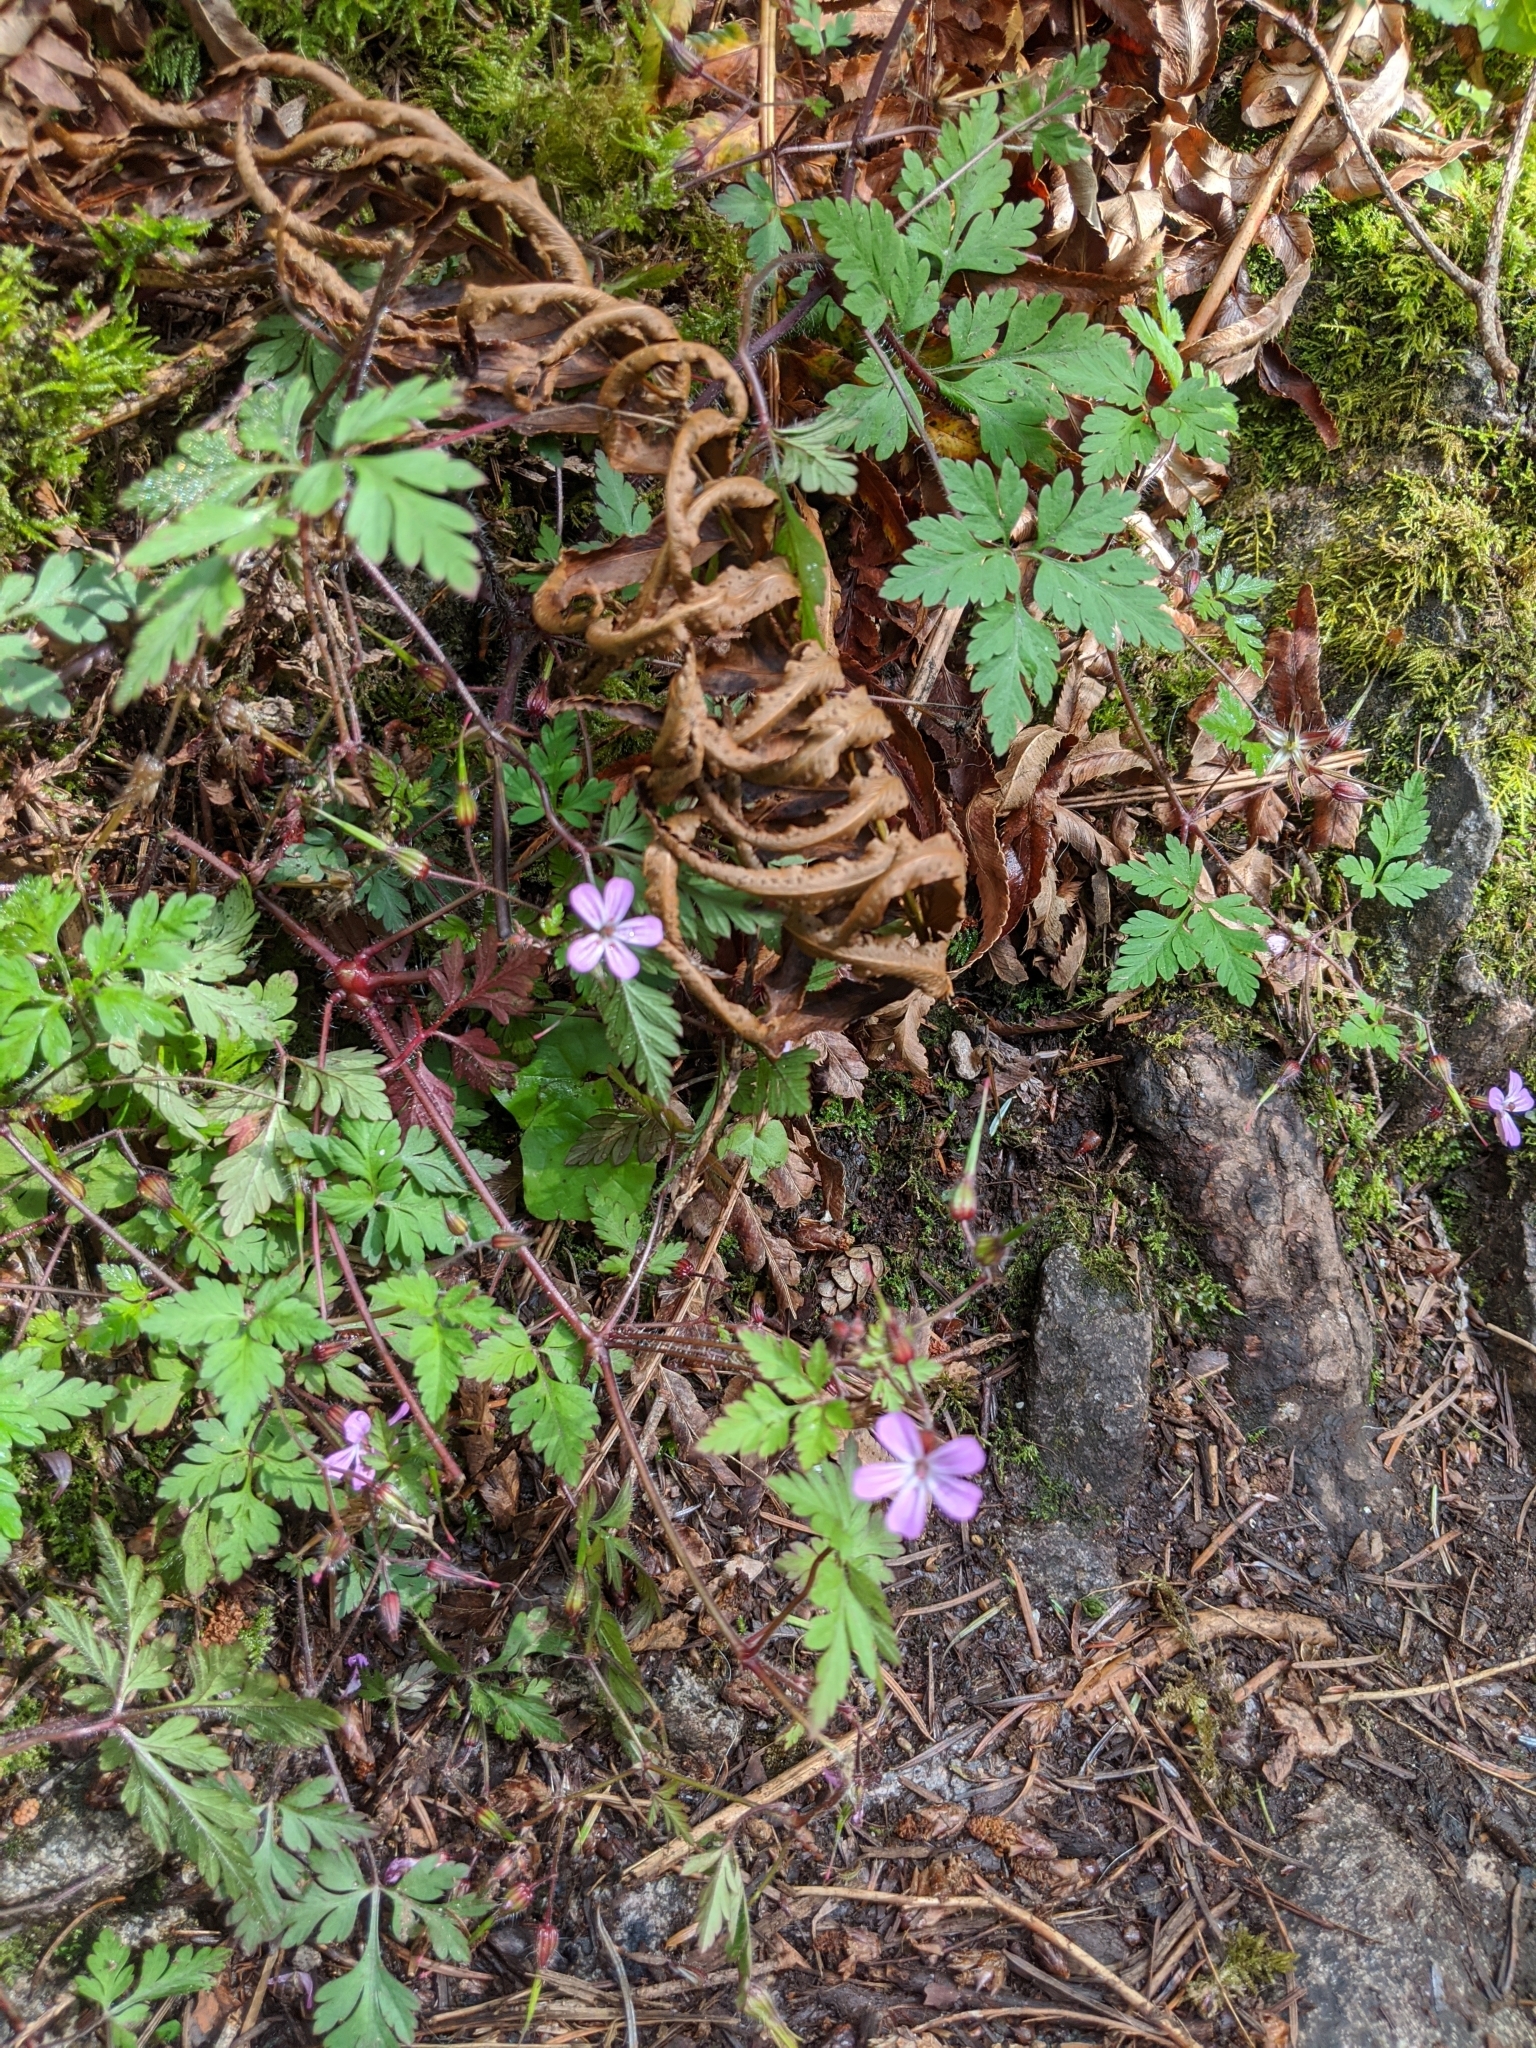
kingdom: Plantae
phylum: Tracheophyta
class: Magnoliopsida
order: Geraniales
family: Geraniaceae
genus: Geranium
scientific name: Geranium robertianum
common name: Herb-robert
